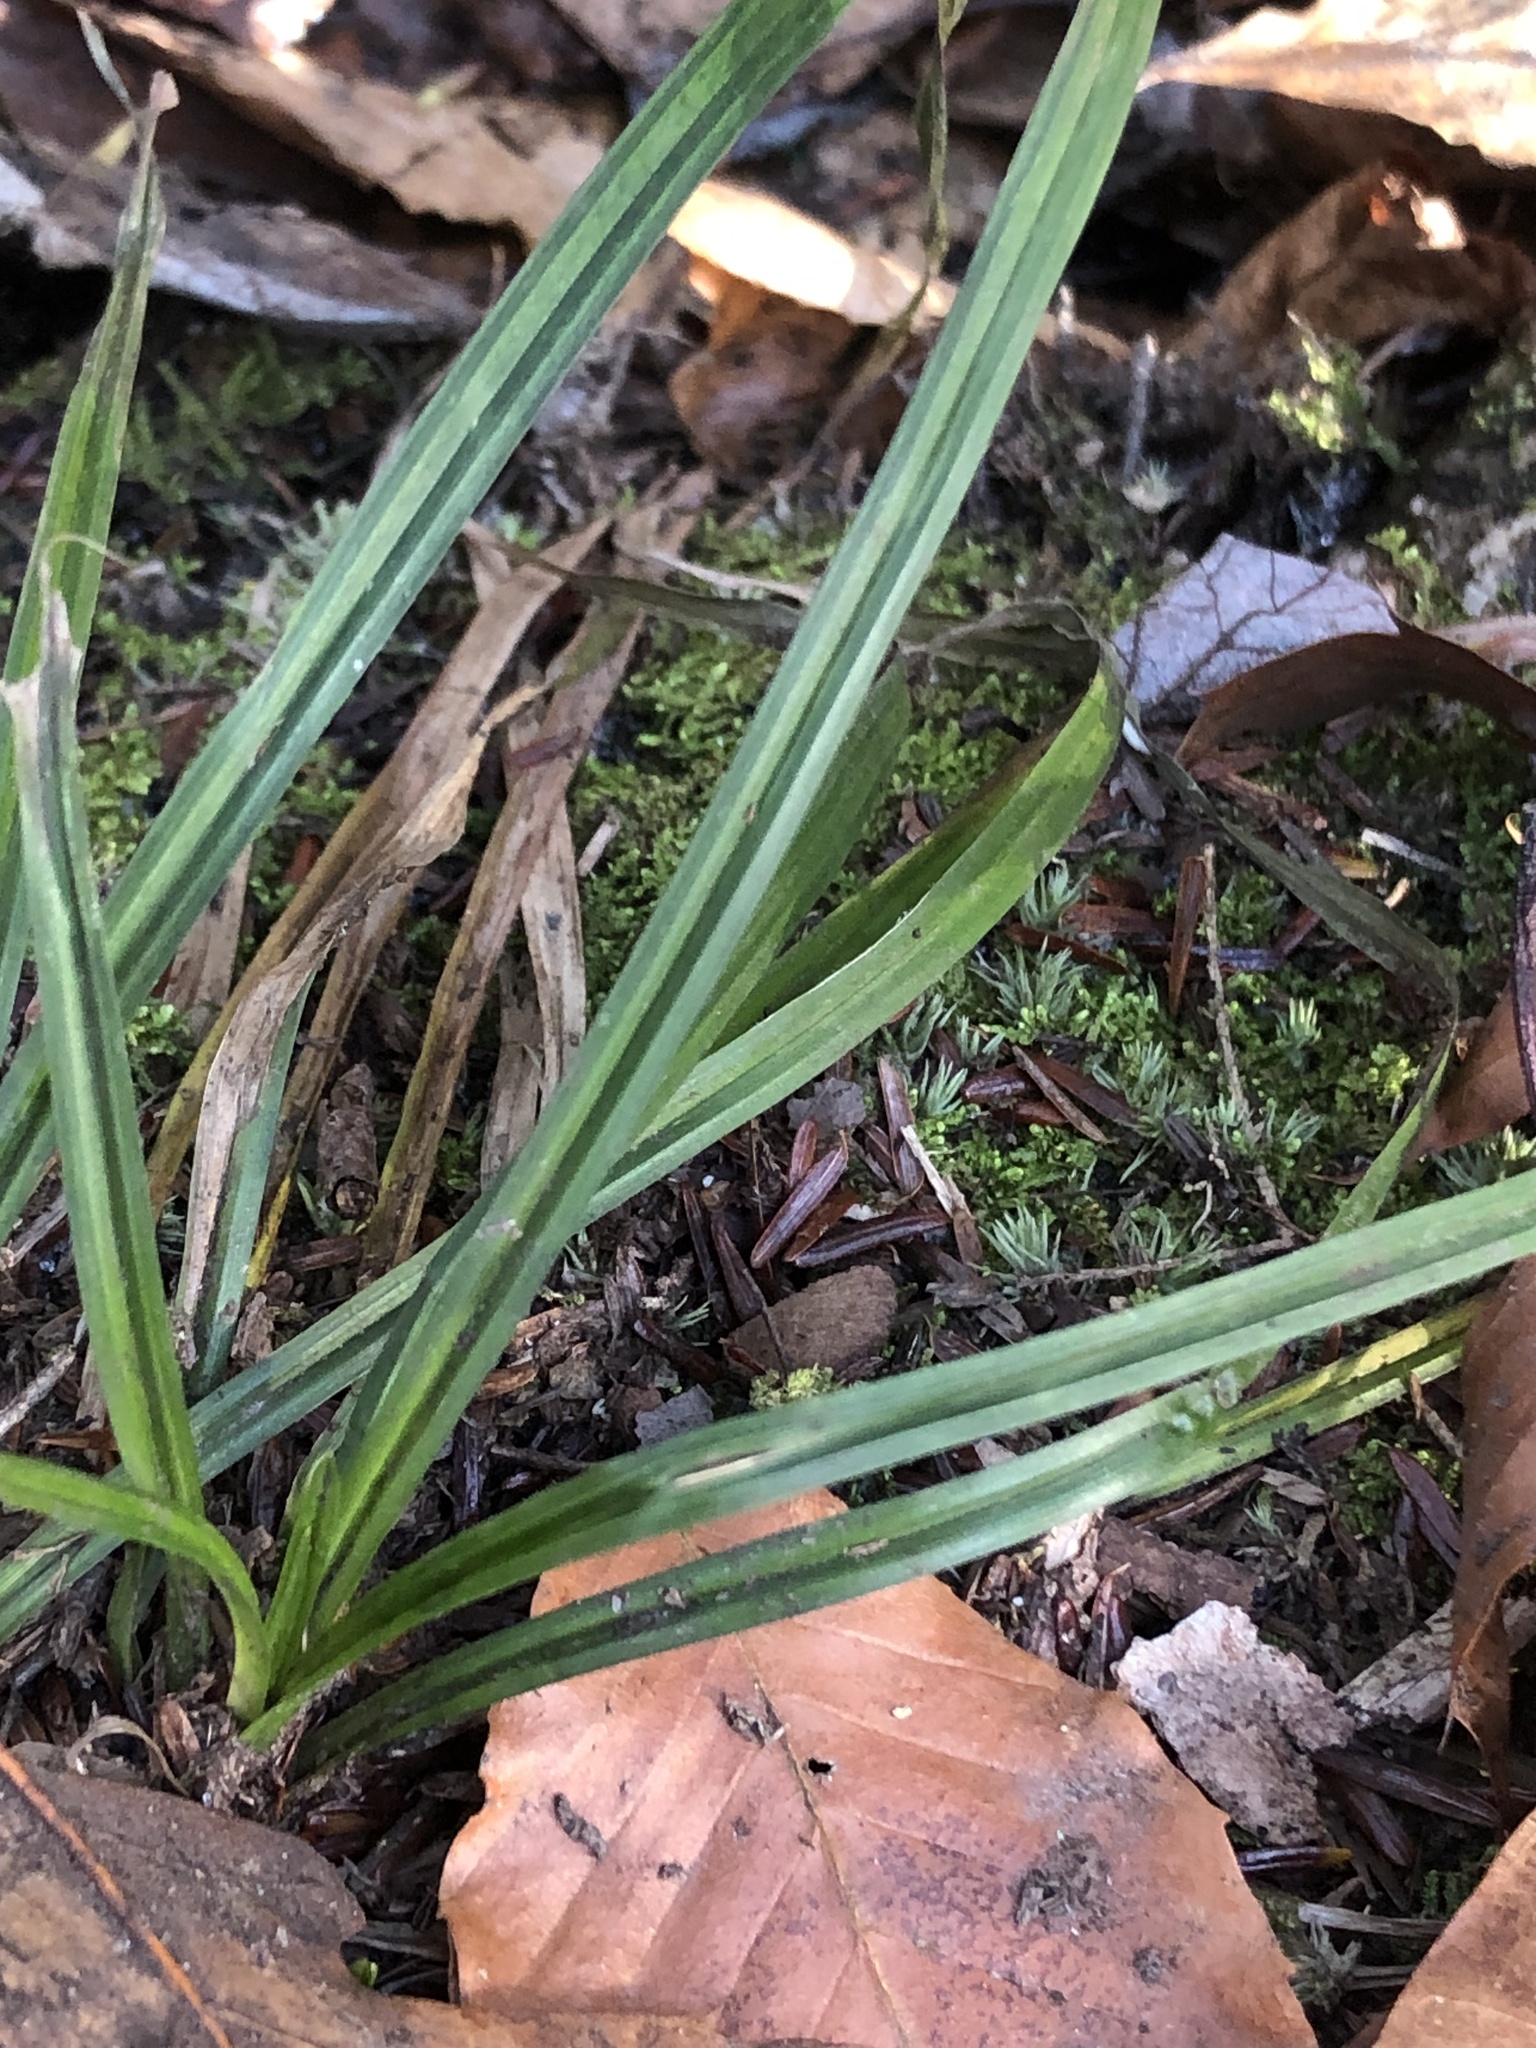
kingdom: Plantae
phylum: Tracheophyta
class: Liliopsida
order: Poales
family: Cyperaceae
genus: Carex
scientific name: Carex
